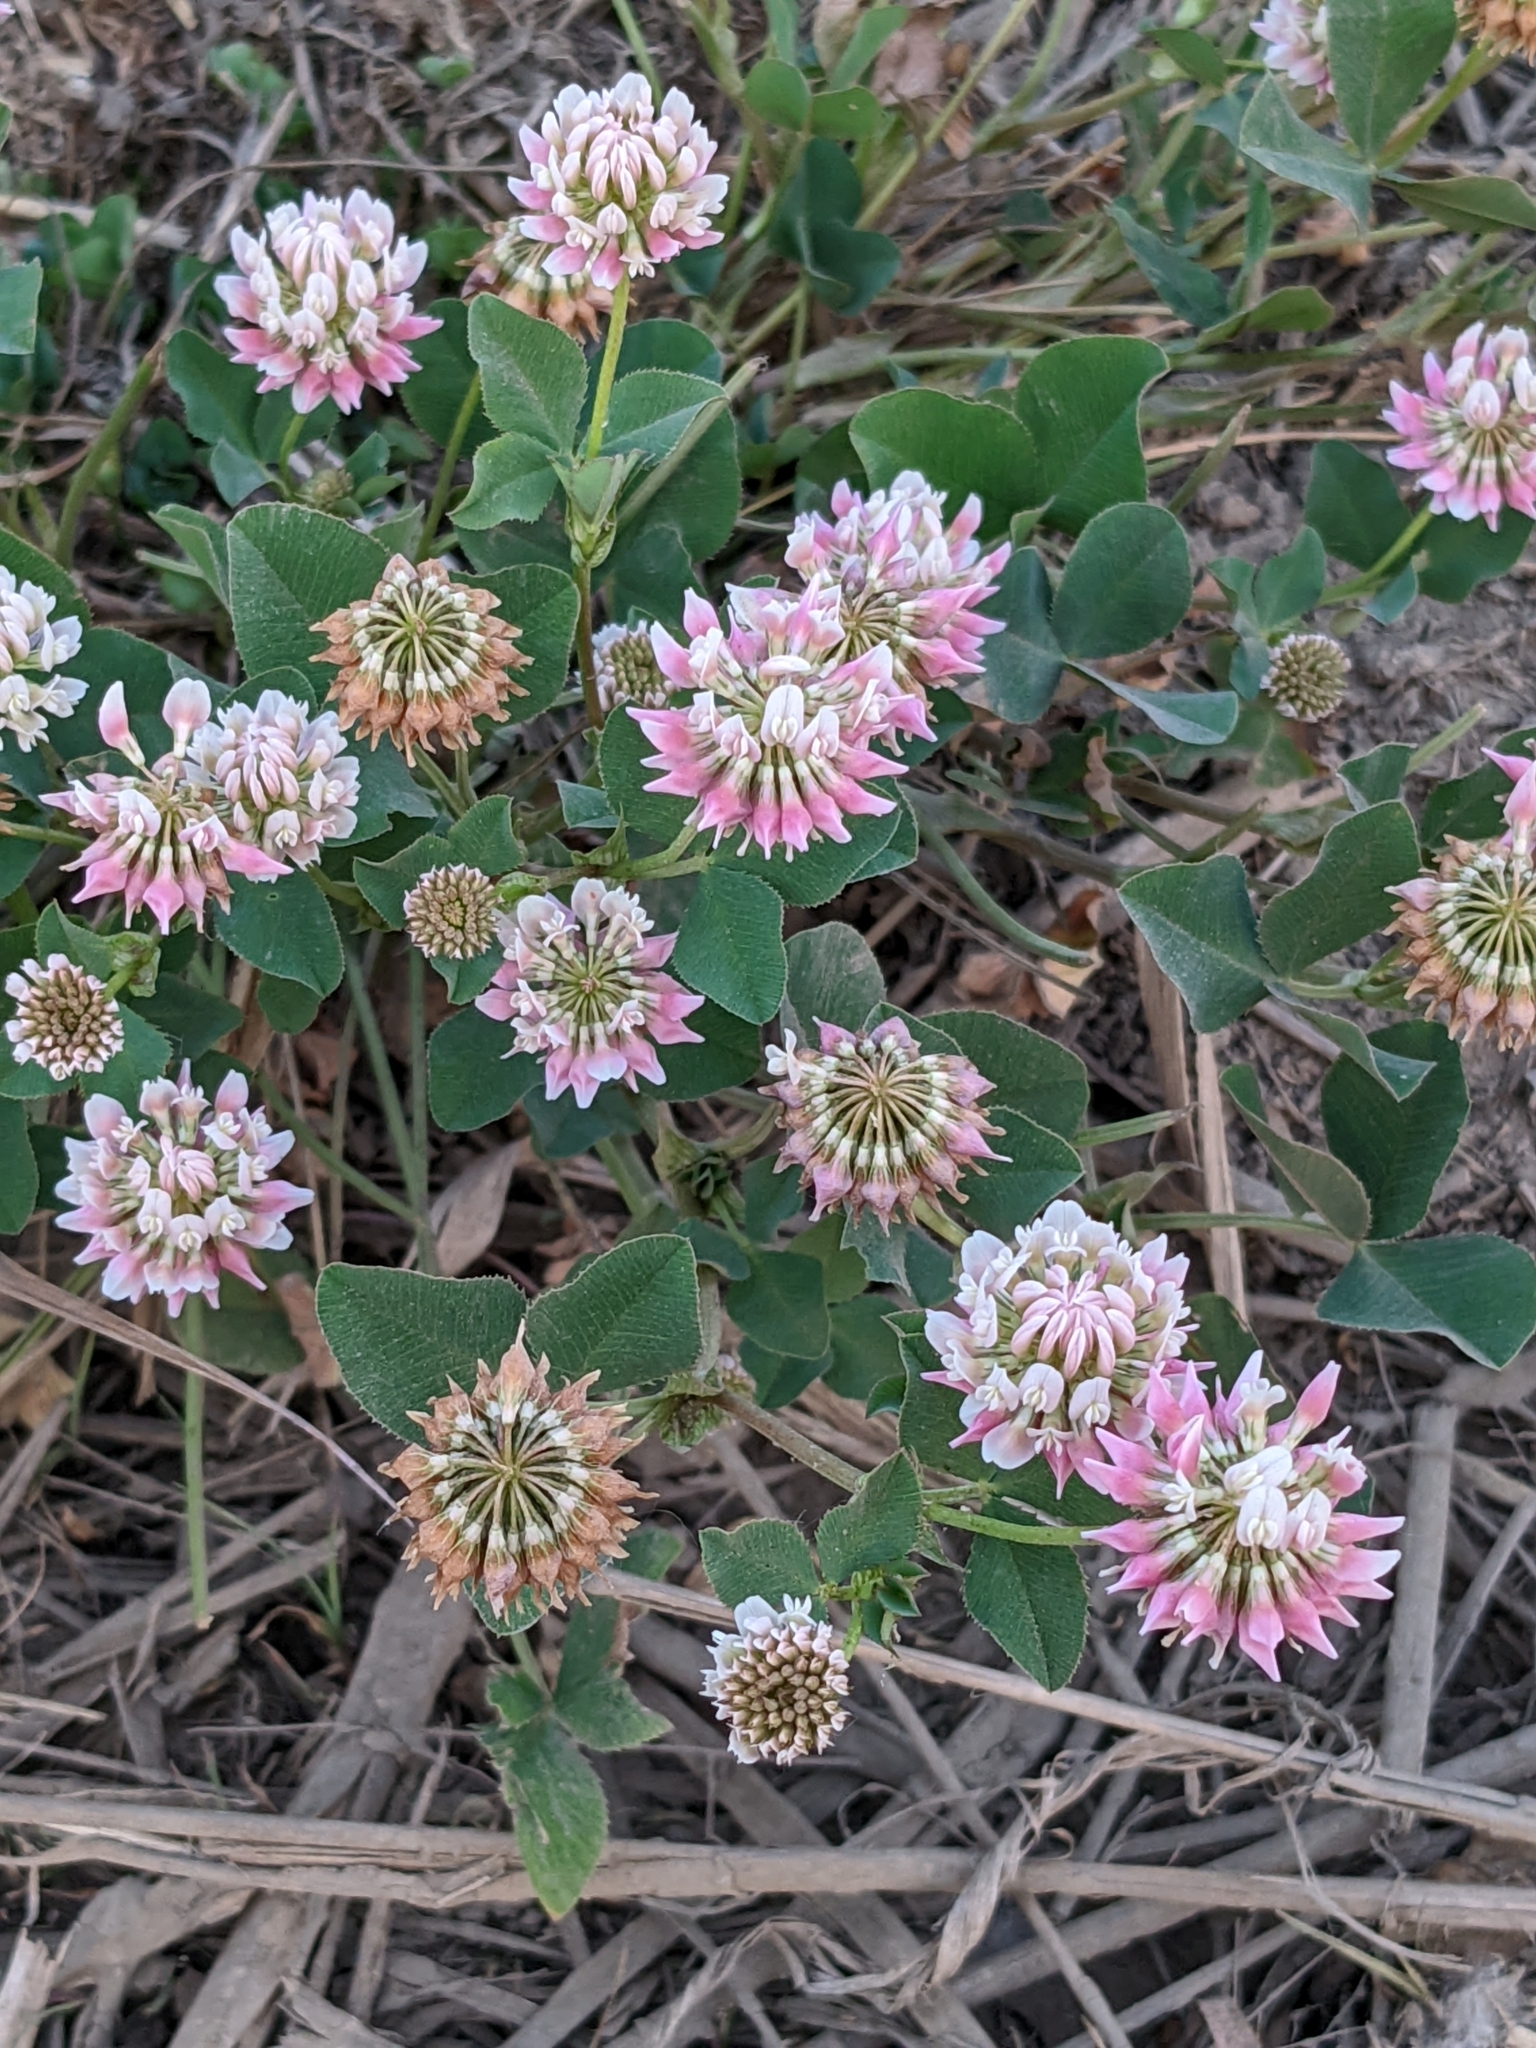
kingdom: Plantae
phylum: Tracheophyta
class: Magnoliopsida
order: Fabales
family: Fabaceae
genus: Trifolium
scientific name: Trifolium hybridum
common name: Alsike clover
